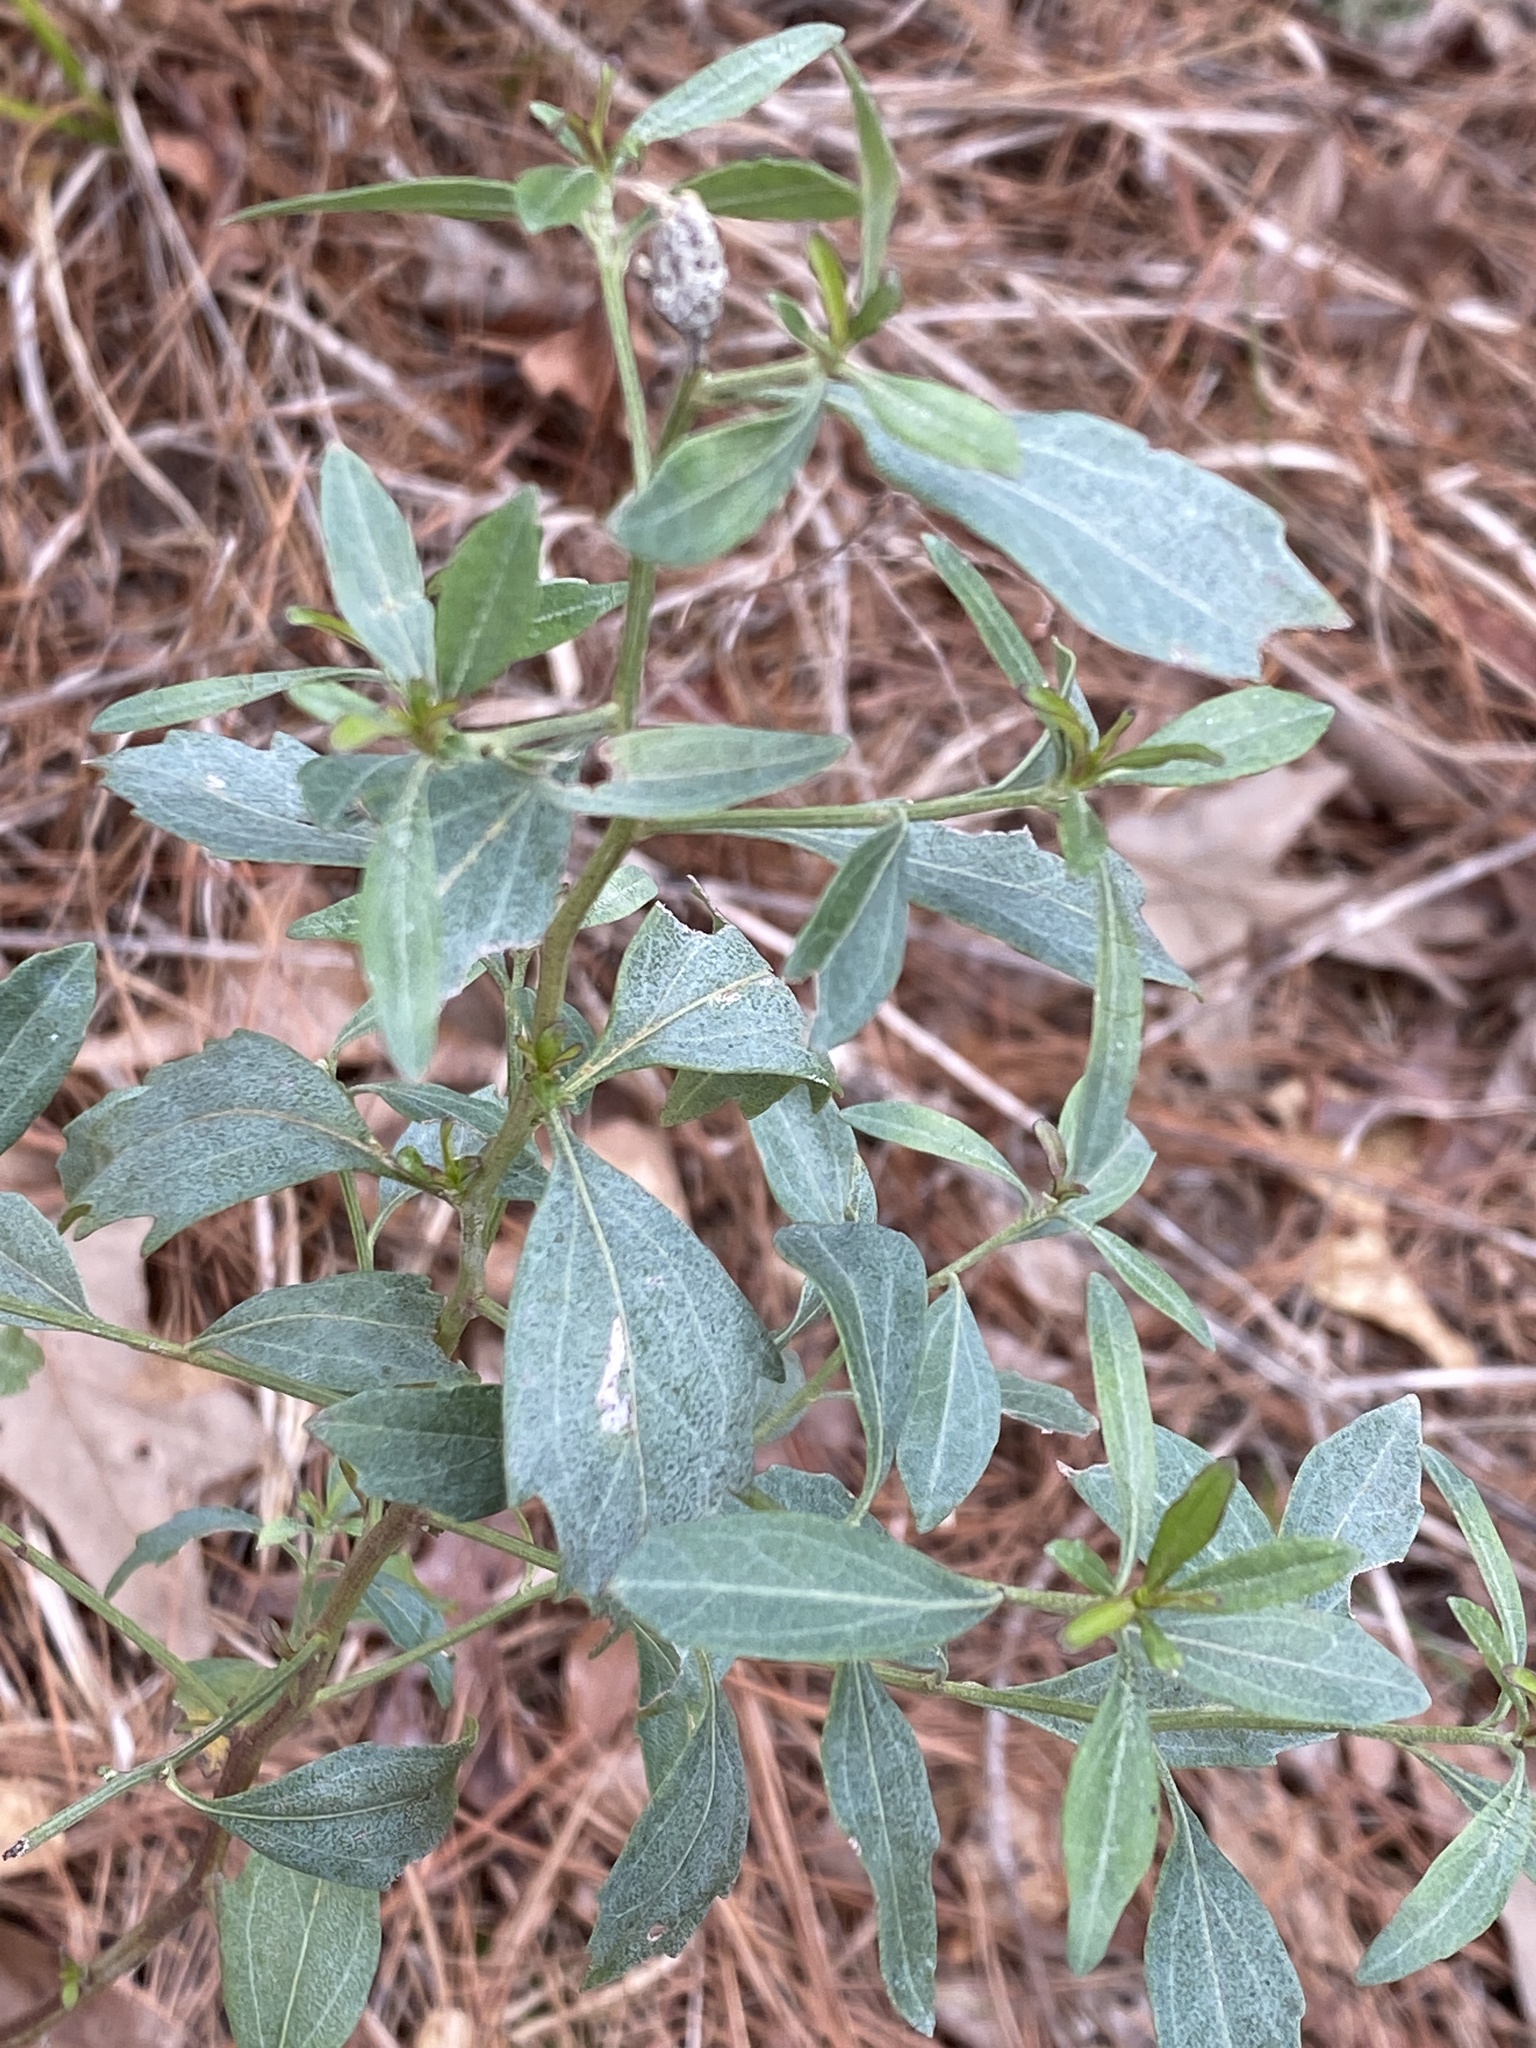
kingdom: Plantae
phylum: Tracheophyta
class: Magnoliopsida
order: Asterales
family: Asteraceae
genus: Baccharis
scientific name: Baccharis halimifolia
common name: Eastern baccharis
